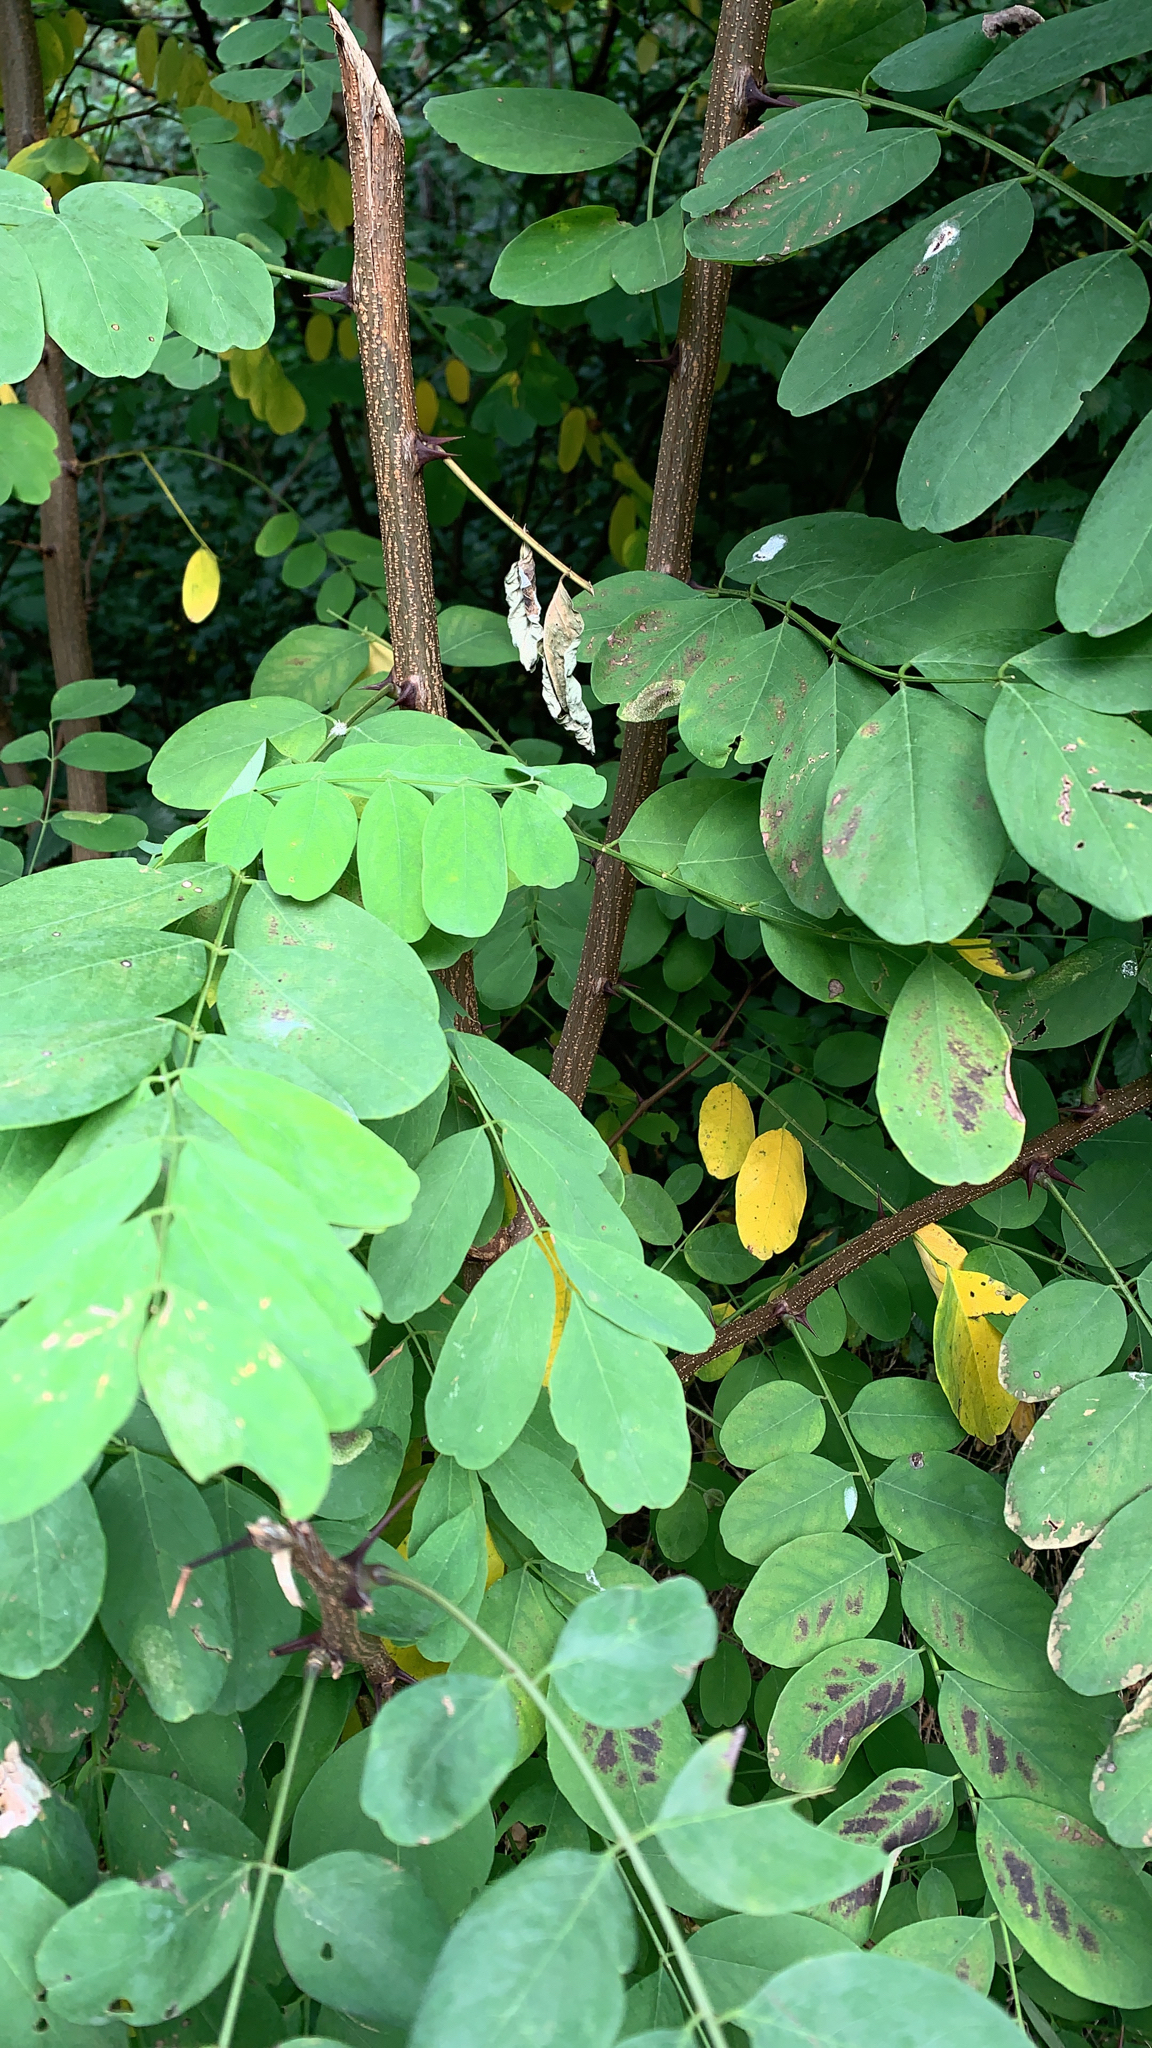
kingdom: Plantae
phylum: Tracheophyta
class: Magnoliopsida
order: Fabales
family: Fabaceae
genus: Robinia
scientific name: Robinia pseudoacacia
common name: Black locust
